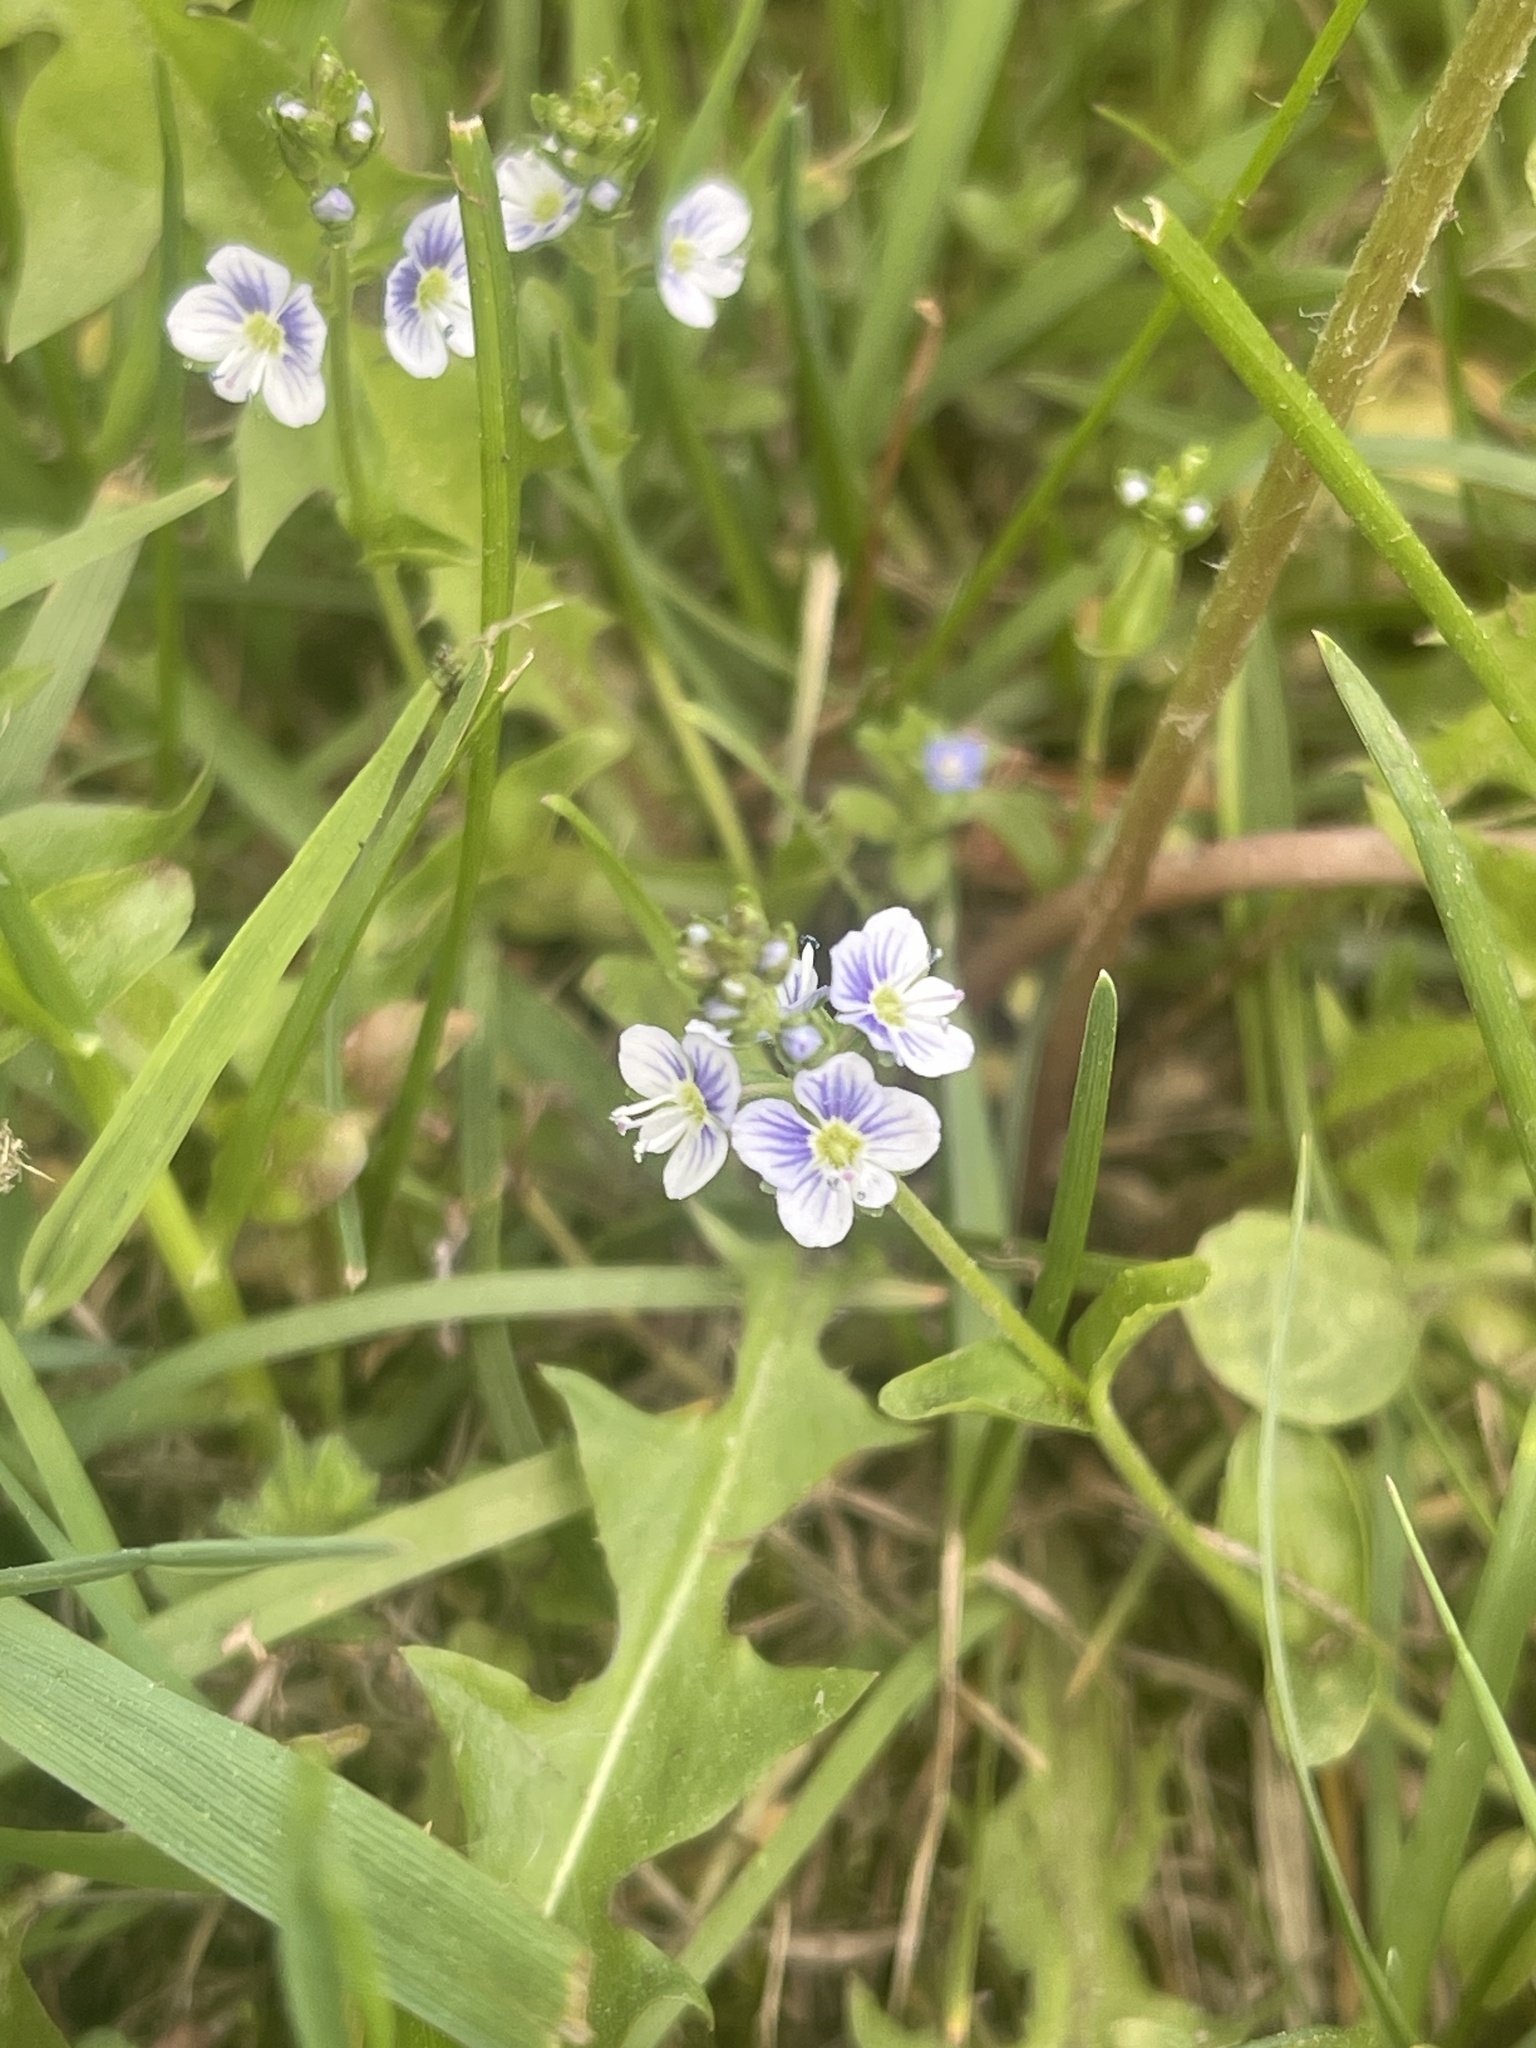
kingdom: Plantae
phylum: Tracheophyta
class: Magnoliopsida
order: Lamiales
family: Plantaginaceae
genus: Veronica
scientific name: Veronica serpyllifolia
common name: Thyme-leaved speedwell
